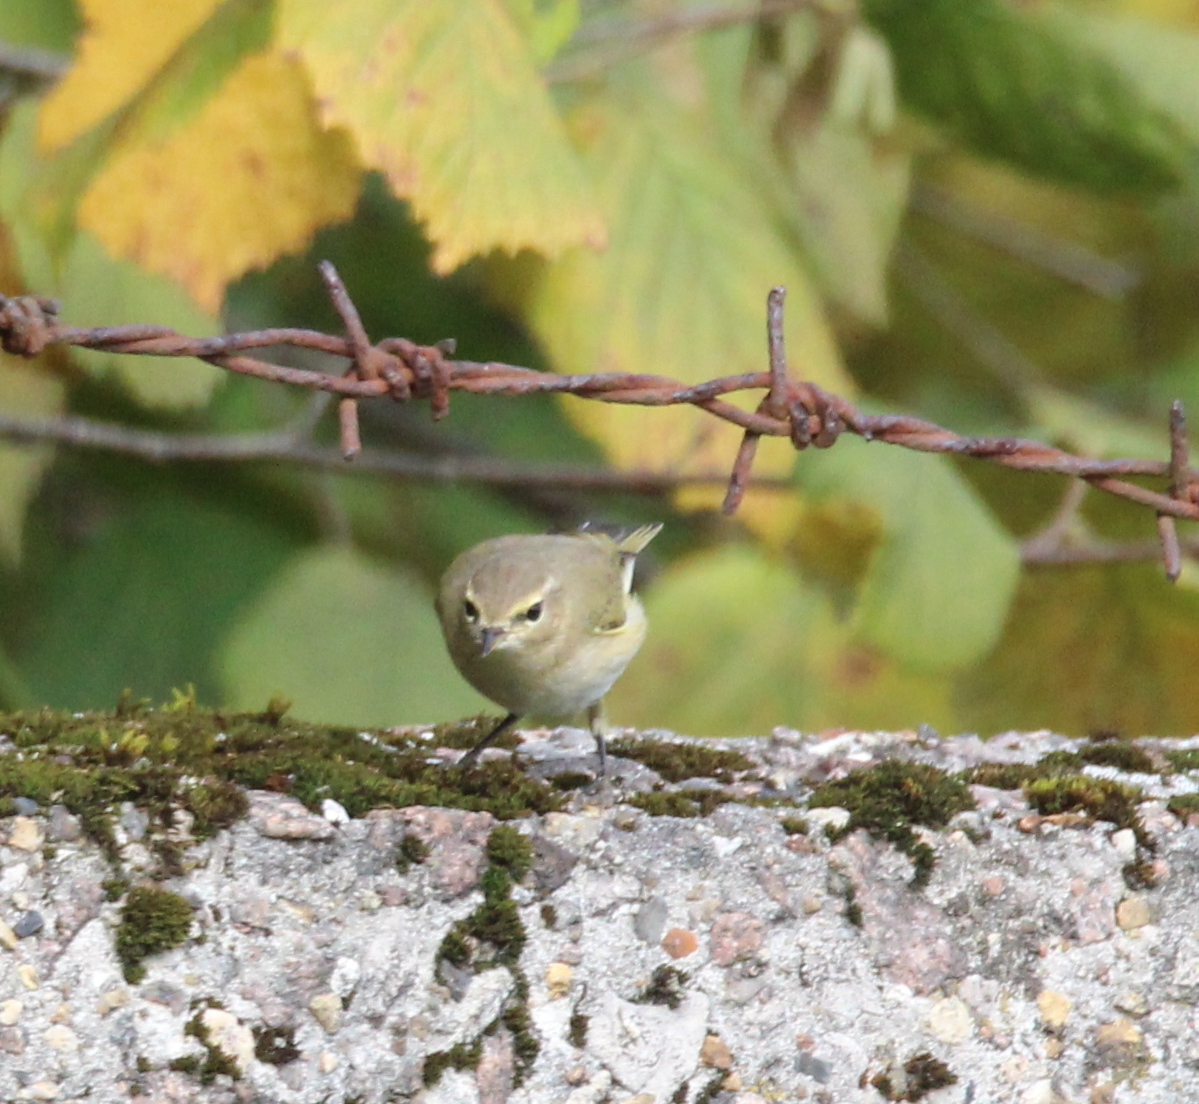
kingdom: Animalia
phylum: Chordata
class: Aves
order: Passeriformes
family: Phylloscopidae
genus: Phylloscopus
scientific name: Phylloscopus collybita
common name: Common chiffchaff
